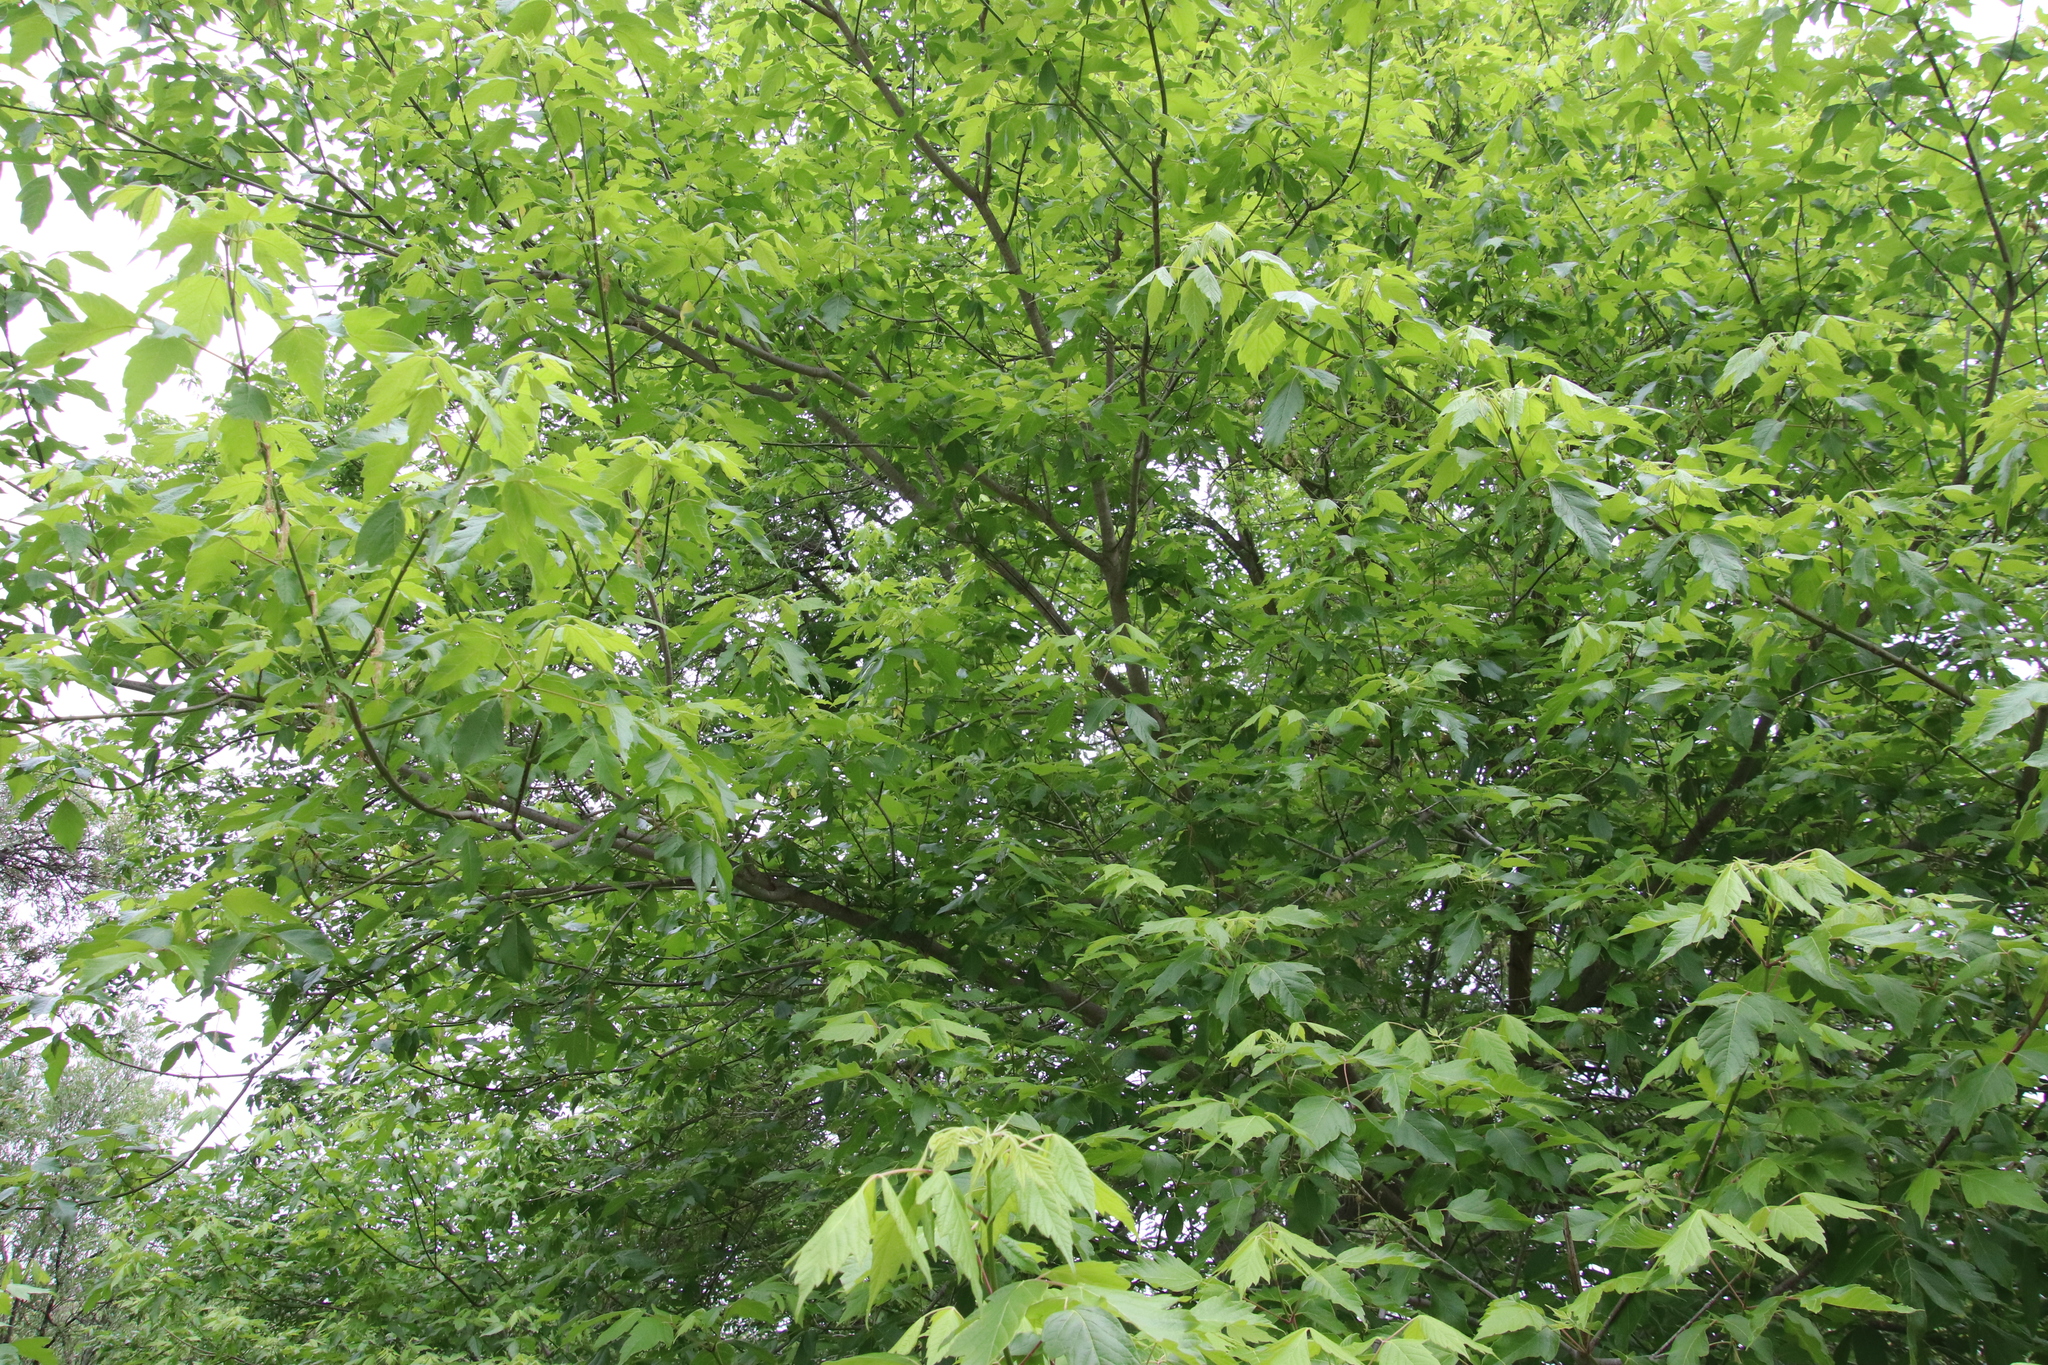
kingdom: Plantae
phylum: Tracheophyta
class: Magnoliopsida
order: Sapindales
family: Sapindaceae
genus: Acer
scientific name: Acer negundo
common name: Ashleaf maple
